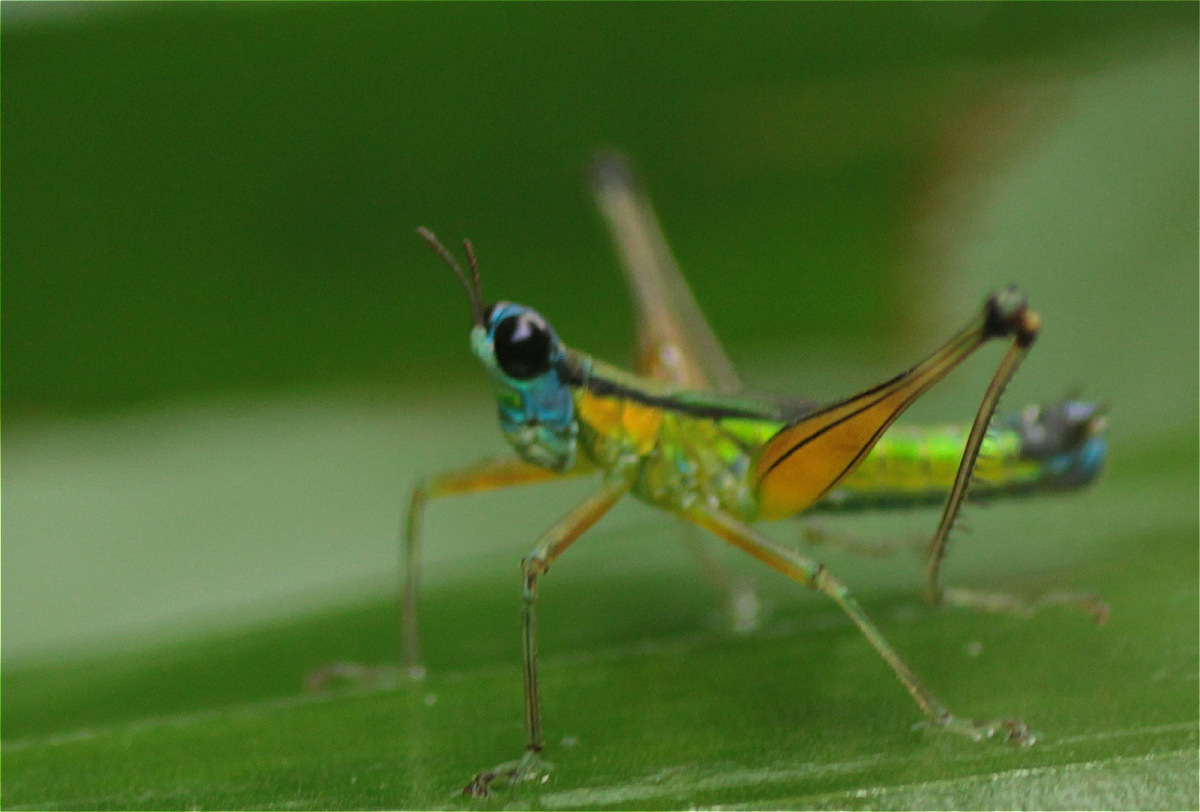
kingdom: Animalia
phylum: Arthropoda
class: Insecta
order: Orthoptera
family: Eumastacidae
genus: Eumastax
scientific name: Eumastax equatoriana
